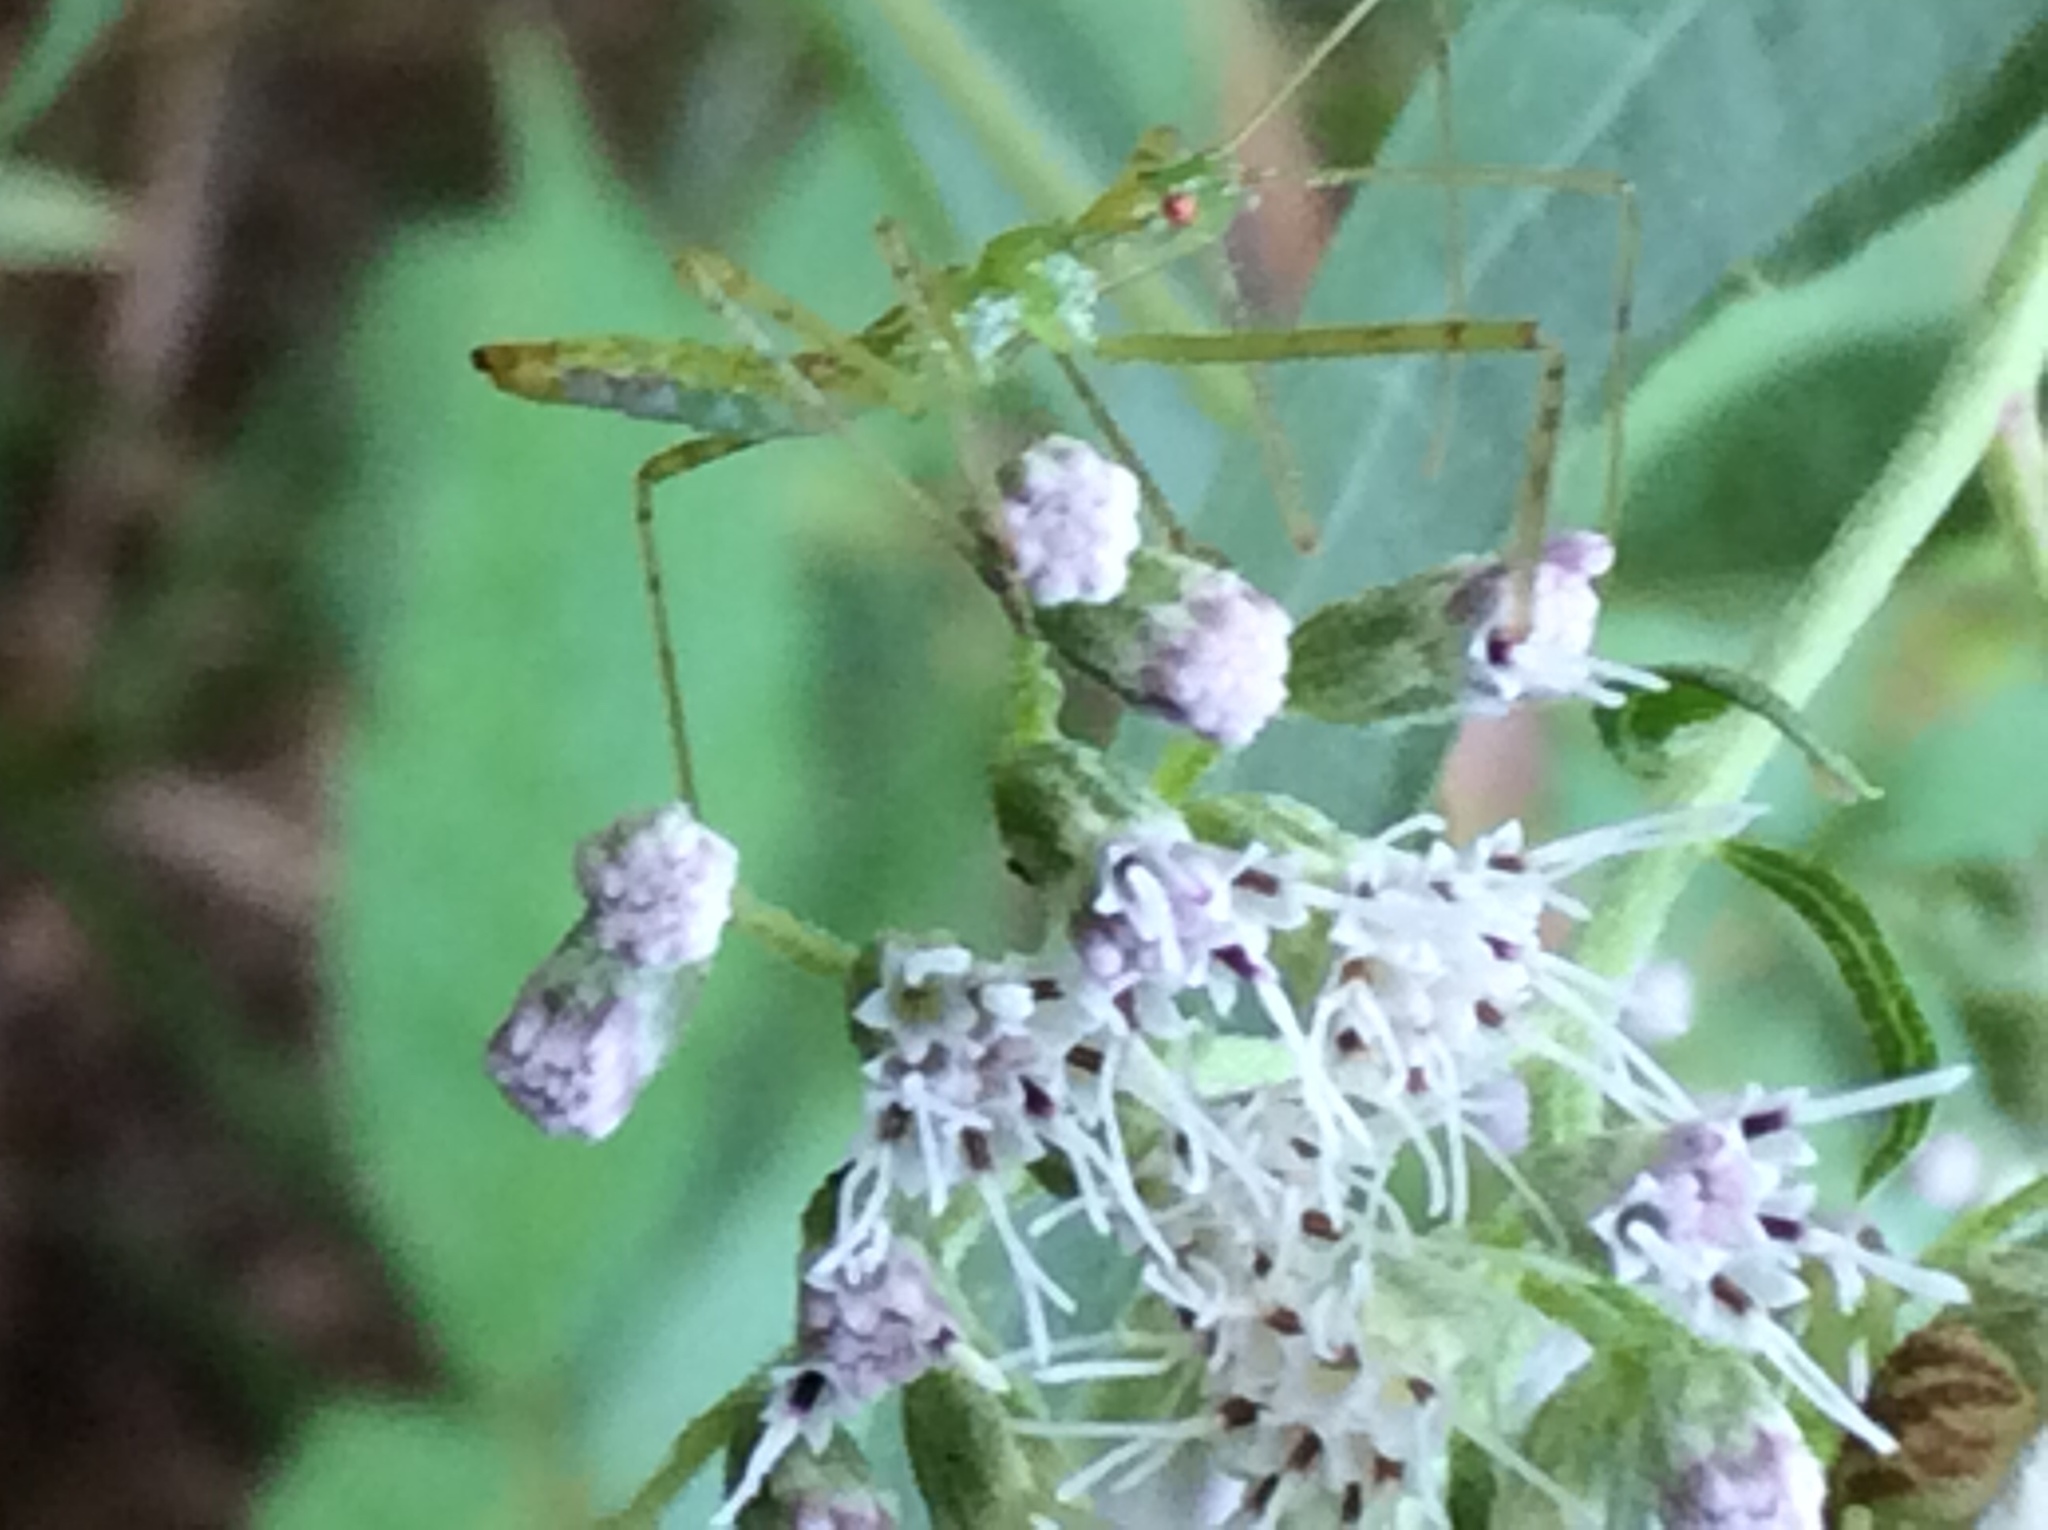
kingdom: Animalia
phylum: Arthropoda
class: Insecta
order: Hemiptera
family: Reduviidae
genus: Zelus
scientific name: Zelus luridus
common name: Pale green assassin bug
